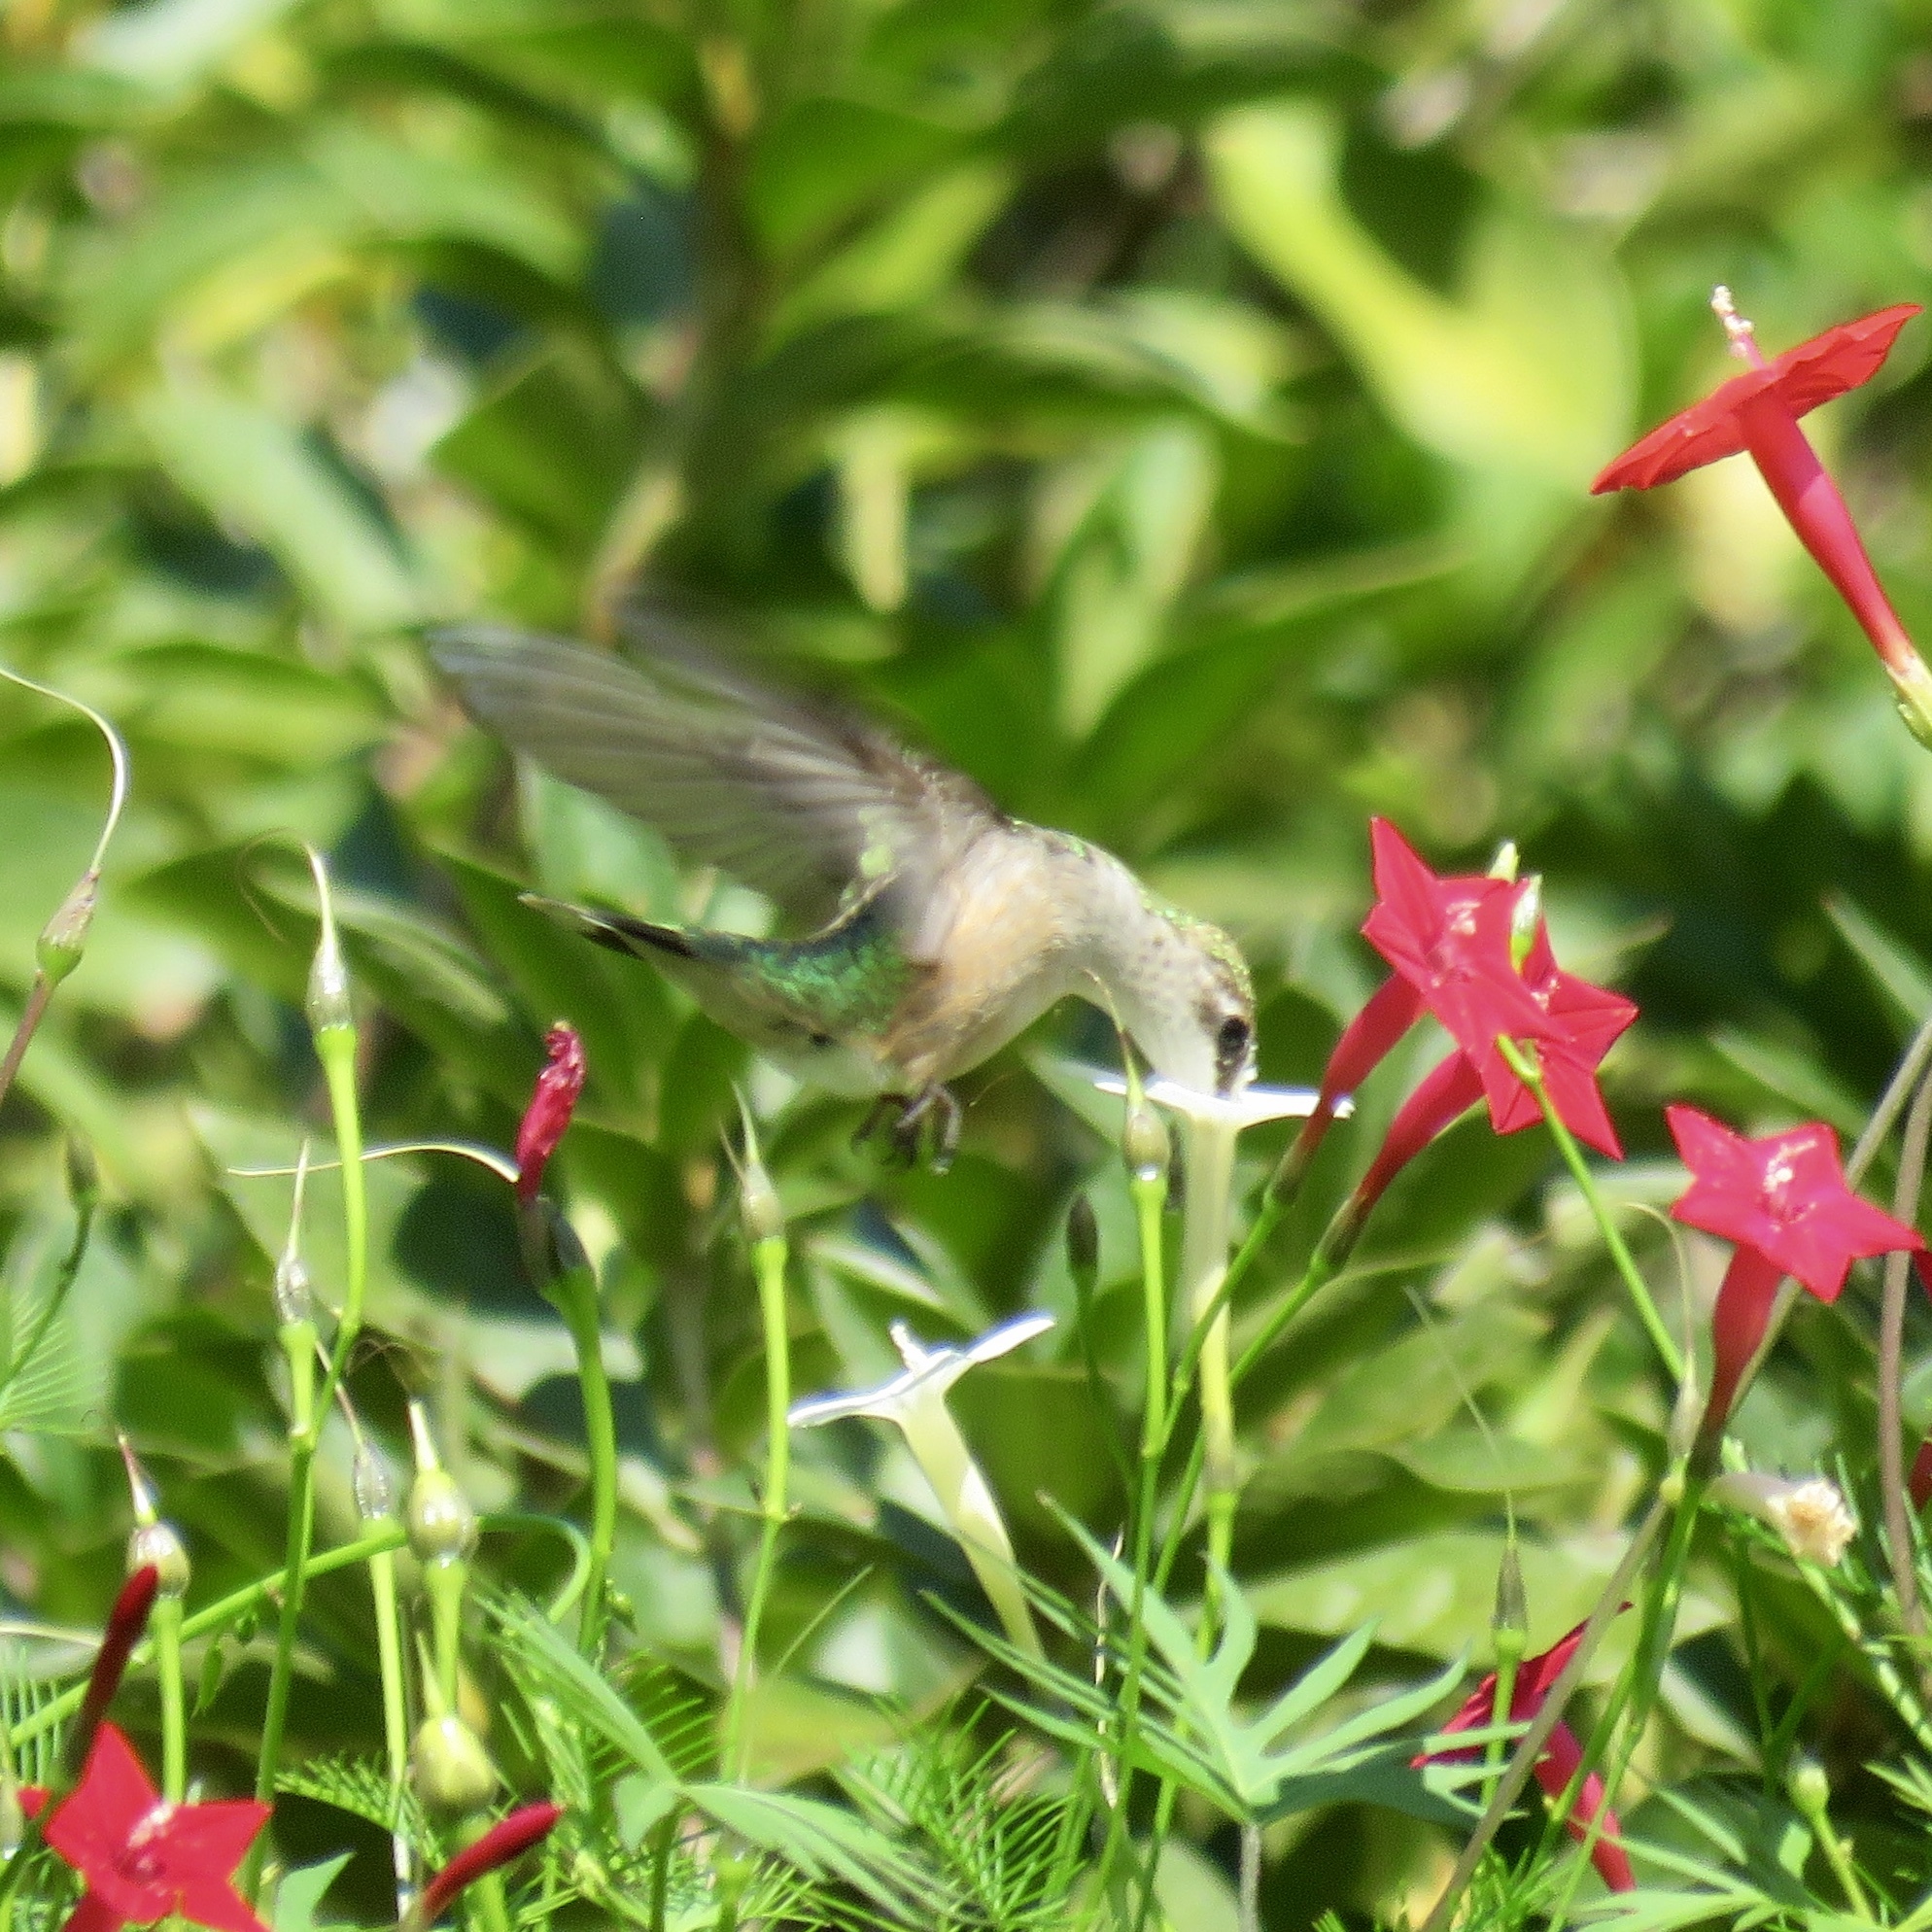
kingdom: Animalia
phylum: Chordata
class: Aves
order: Apodiformes
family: Trochilidae
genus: Archilochus
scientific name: Archilochus colubris
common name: Ruby-throated hummingbird
